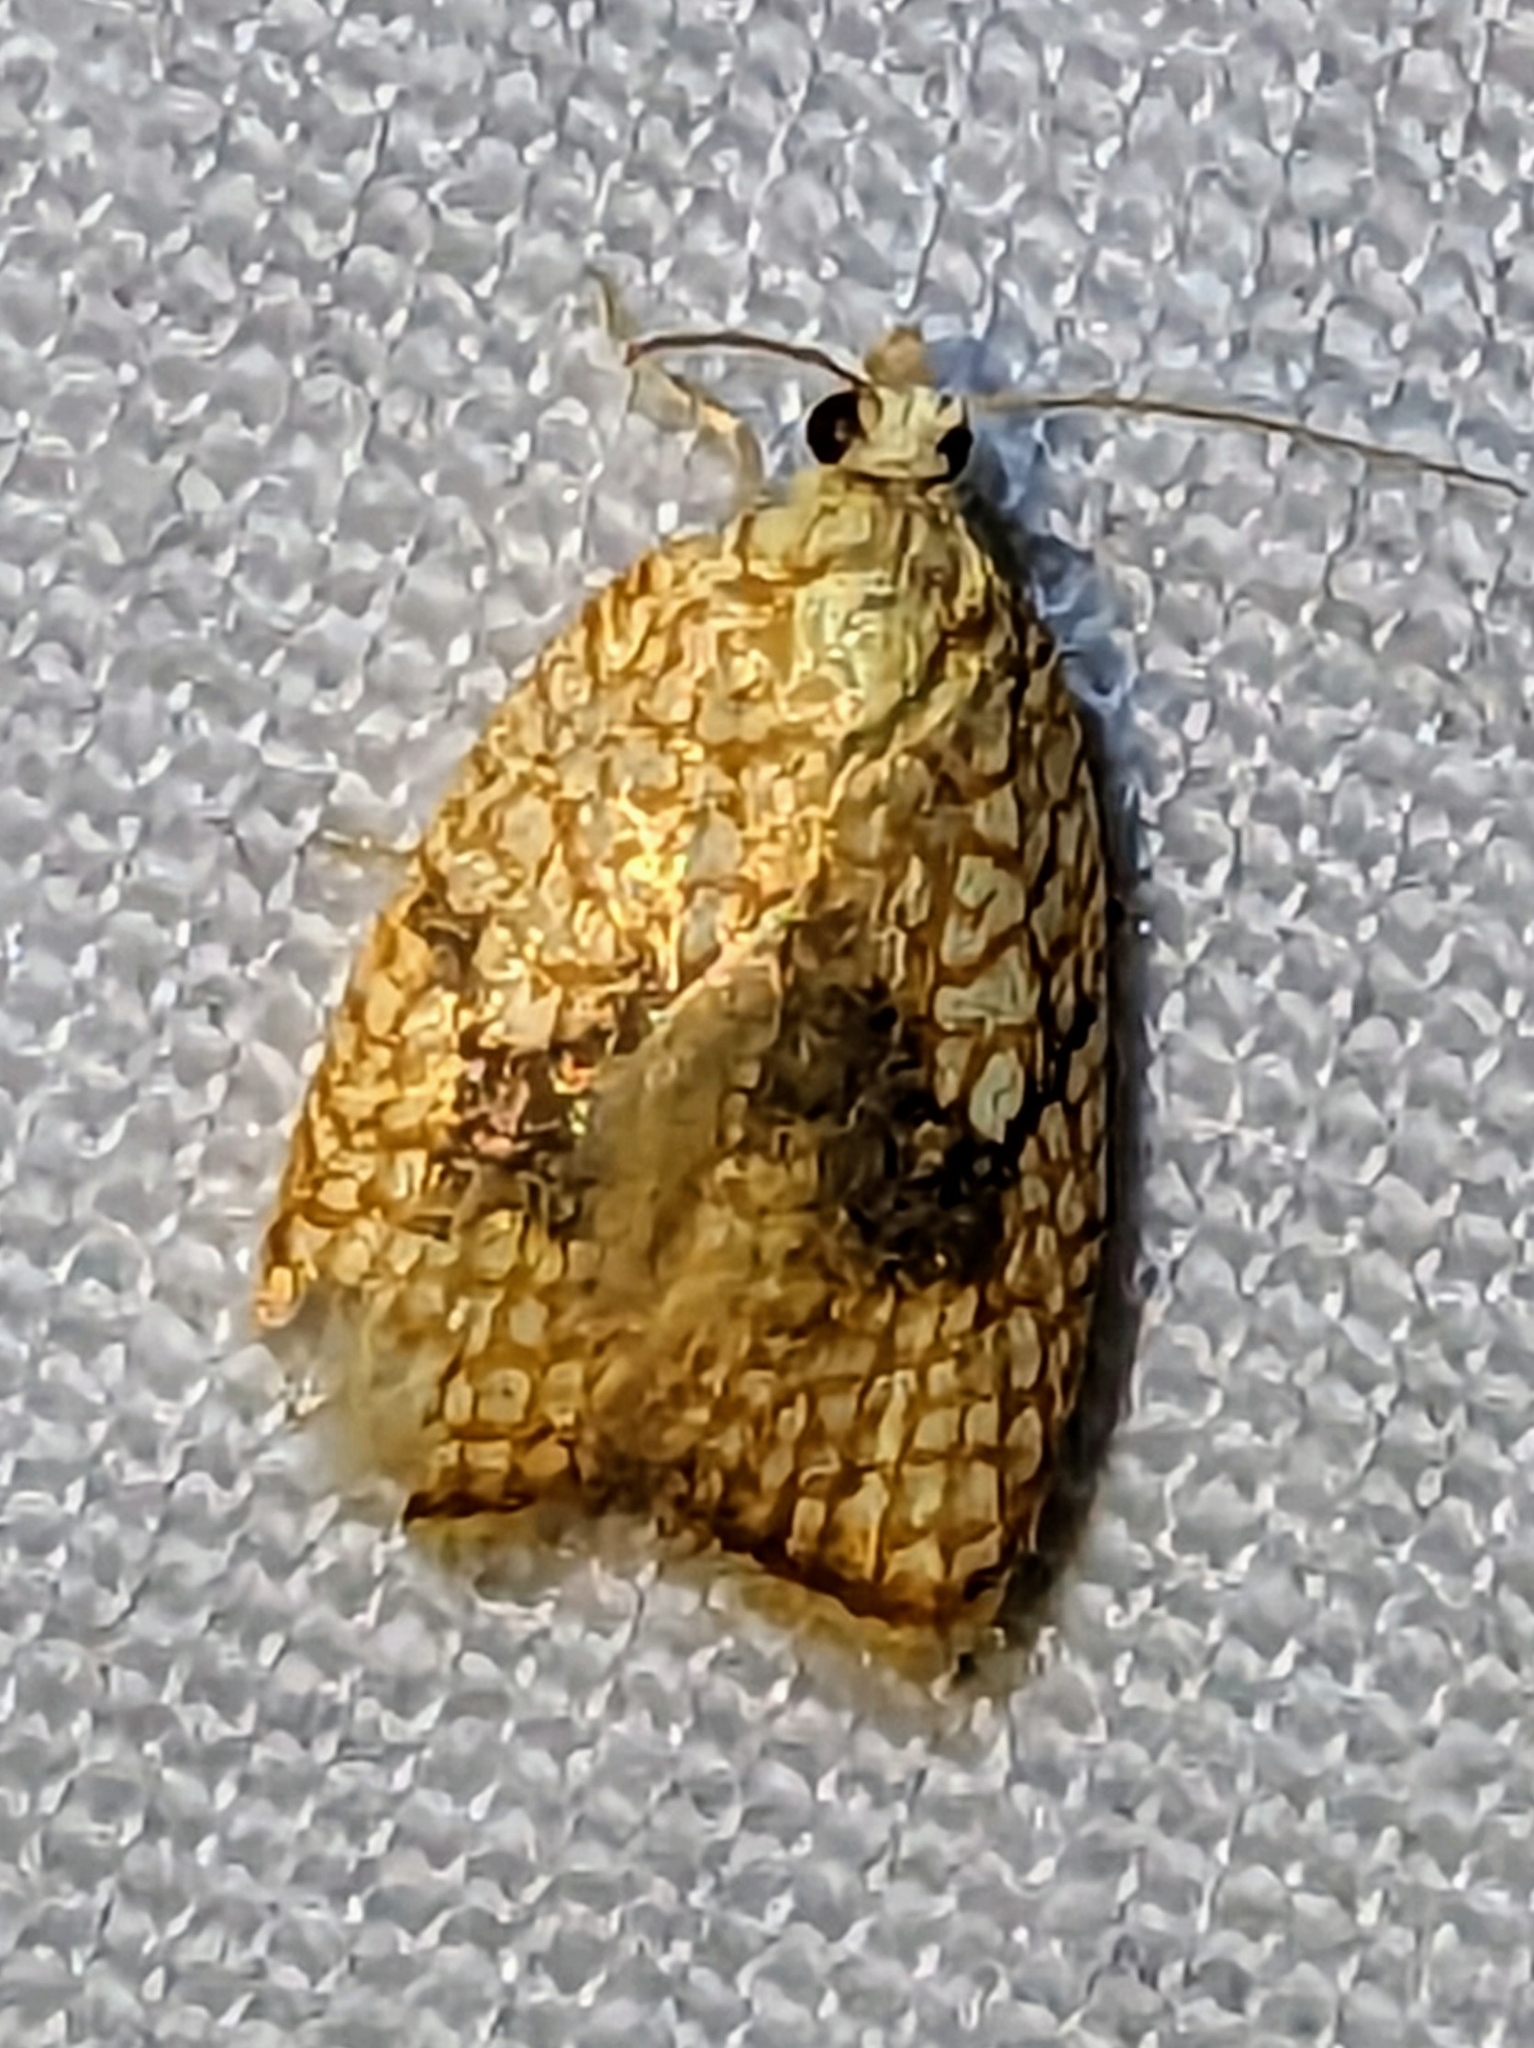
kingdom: Animalia
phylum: Arthropoda
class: Insecta
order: Lepidoptera
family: Tortricidae
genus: Acleris
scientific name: Acleris forsskaleana
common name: Maple button
